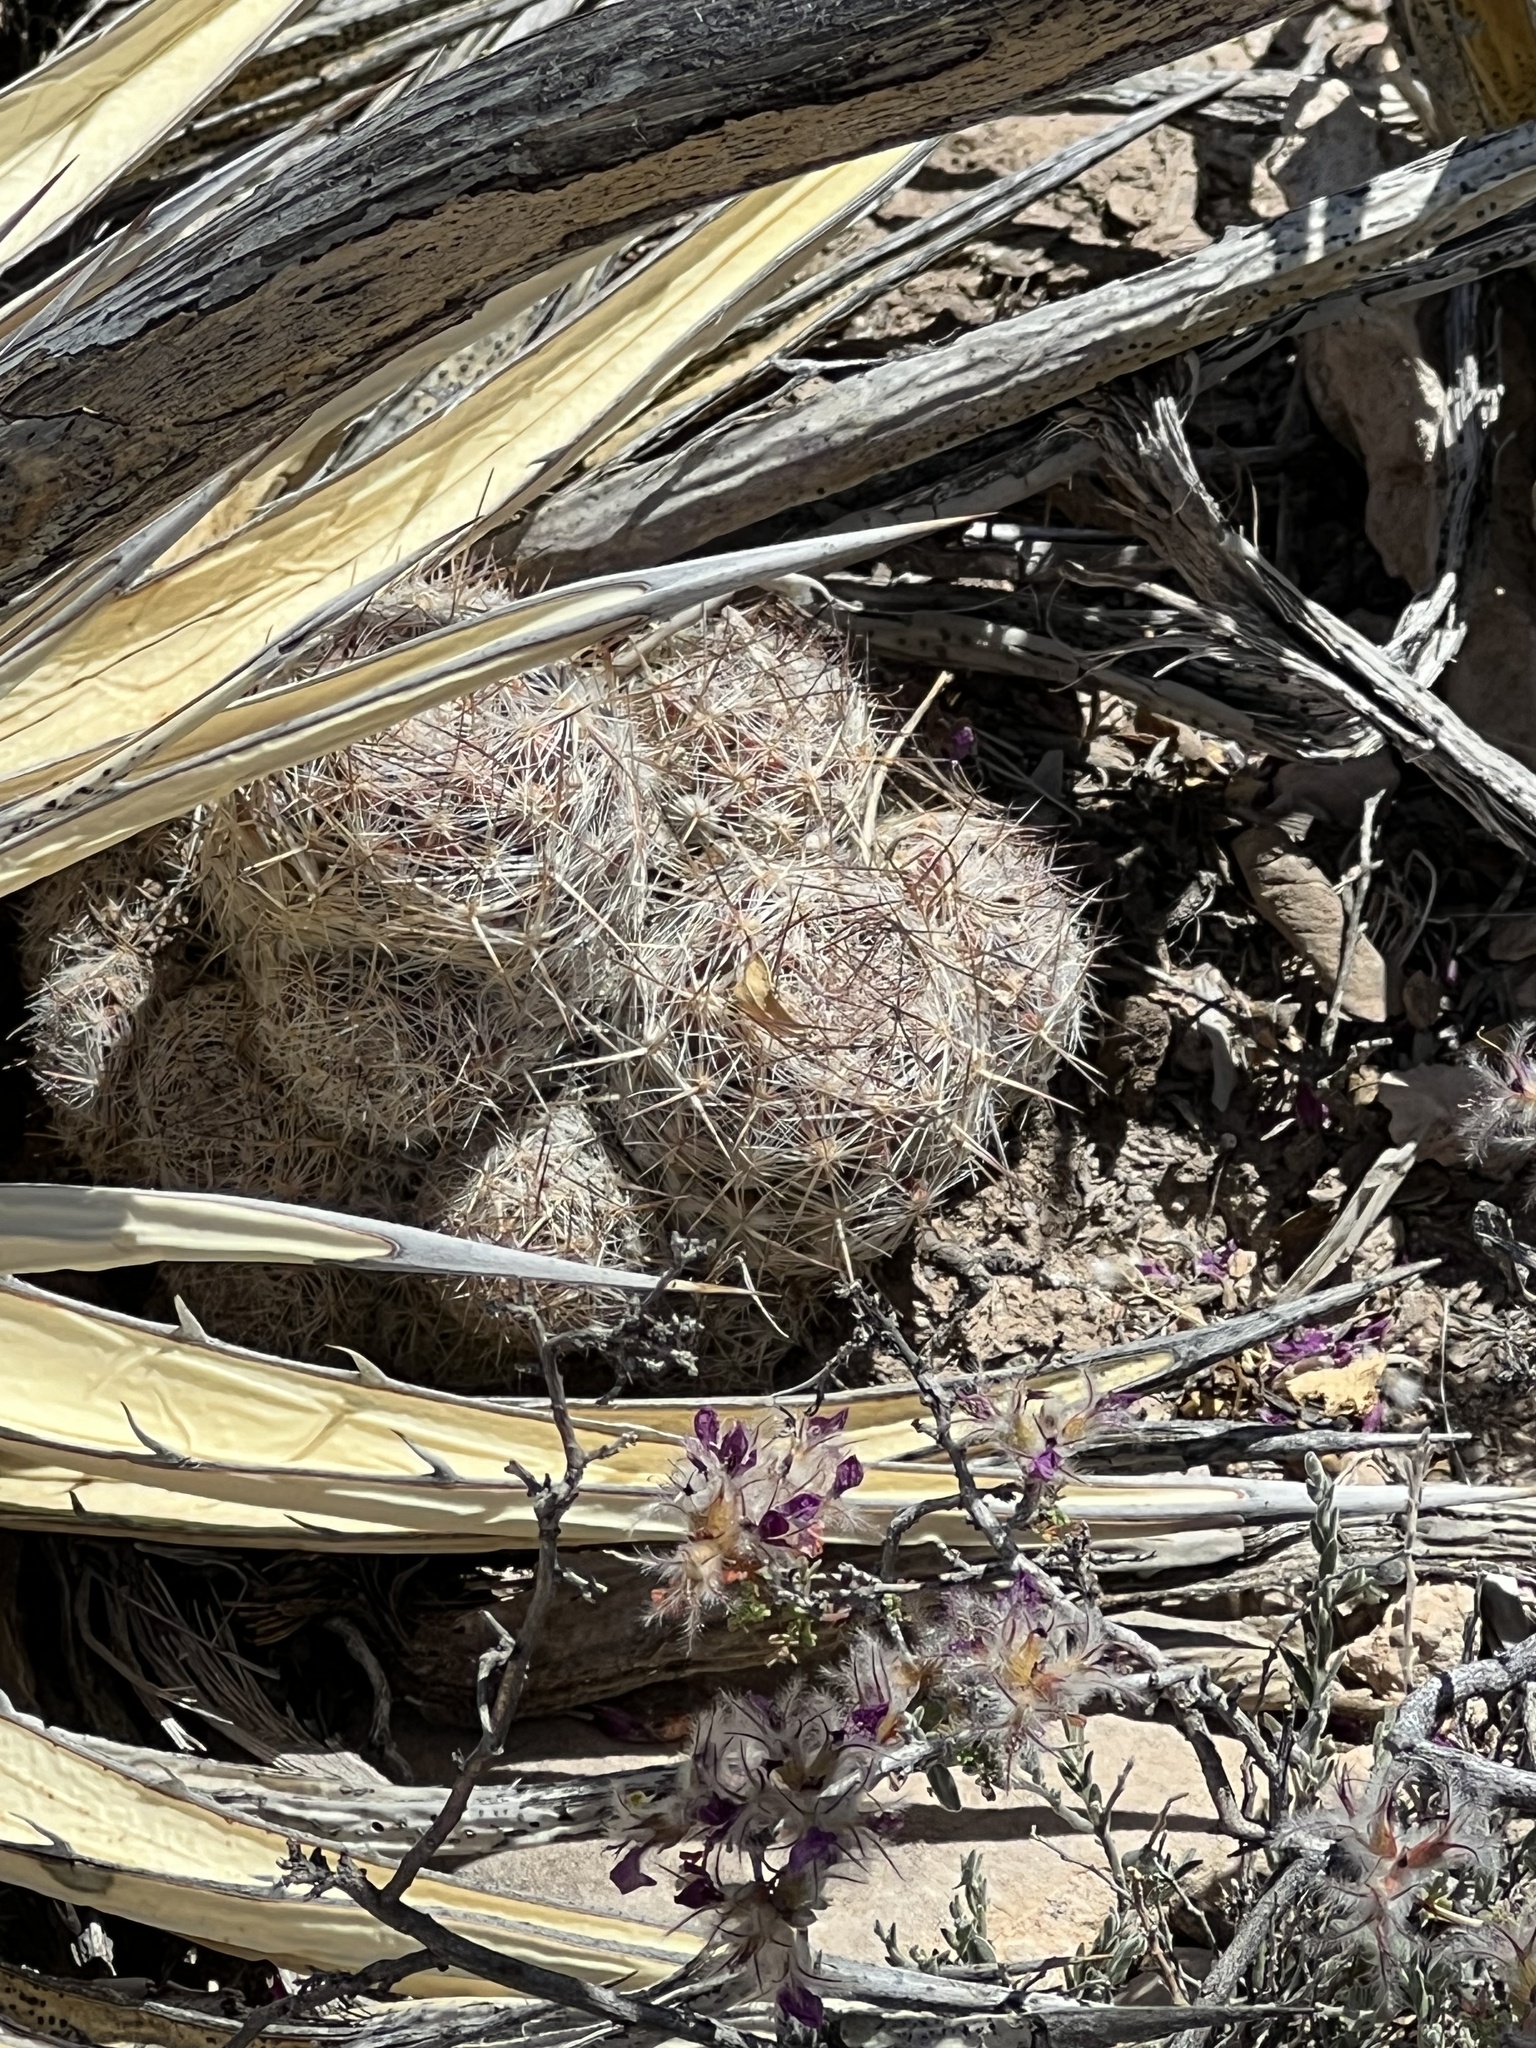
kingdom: Plantae
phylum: Tracheophyta
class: Magnoliopsida
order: Caryophyllales
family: Cactaceae
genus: Pelecyphora
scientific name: Pelecyphora tuberculosa
